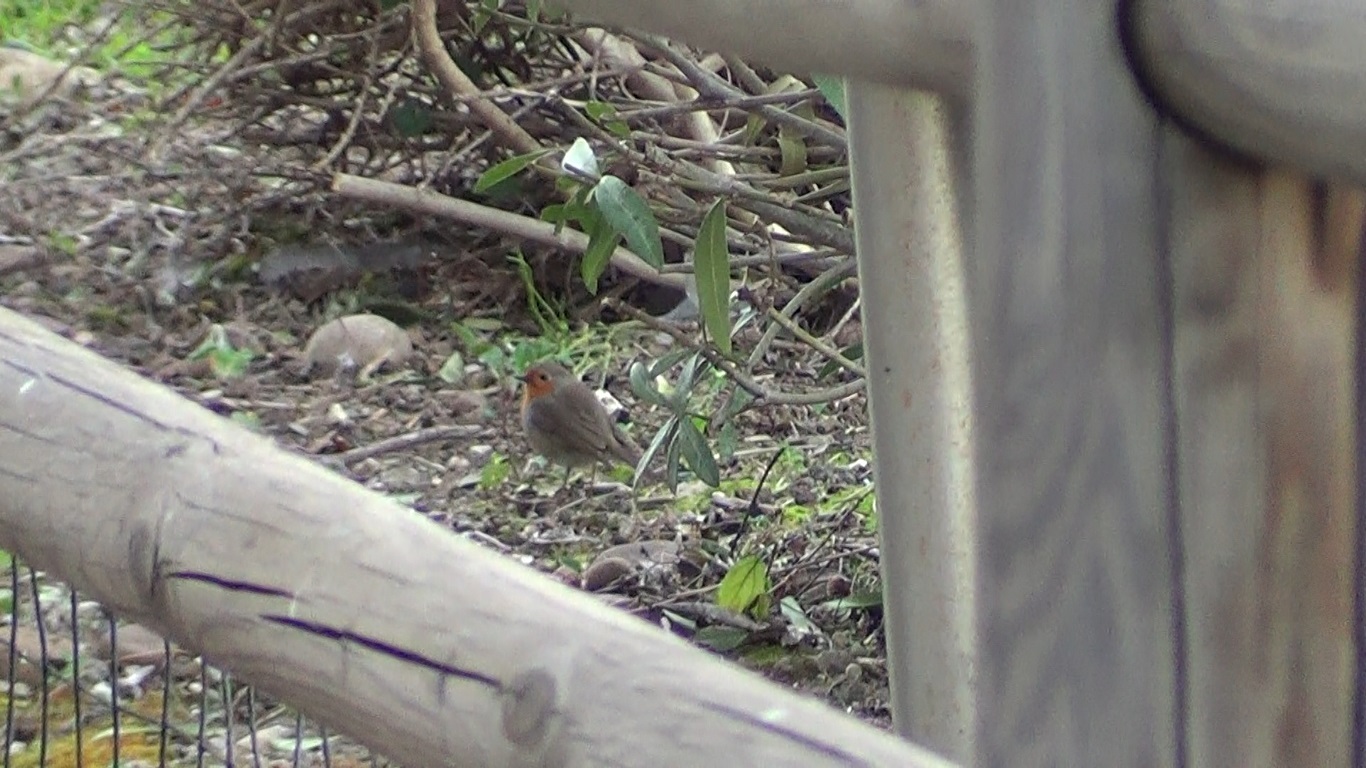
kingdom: Animalia
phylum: Chordata
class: Aves
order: Passeriformes
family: Muscicapidae
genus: Erithacus
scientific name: Erithacus rubecula
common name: European robin
